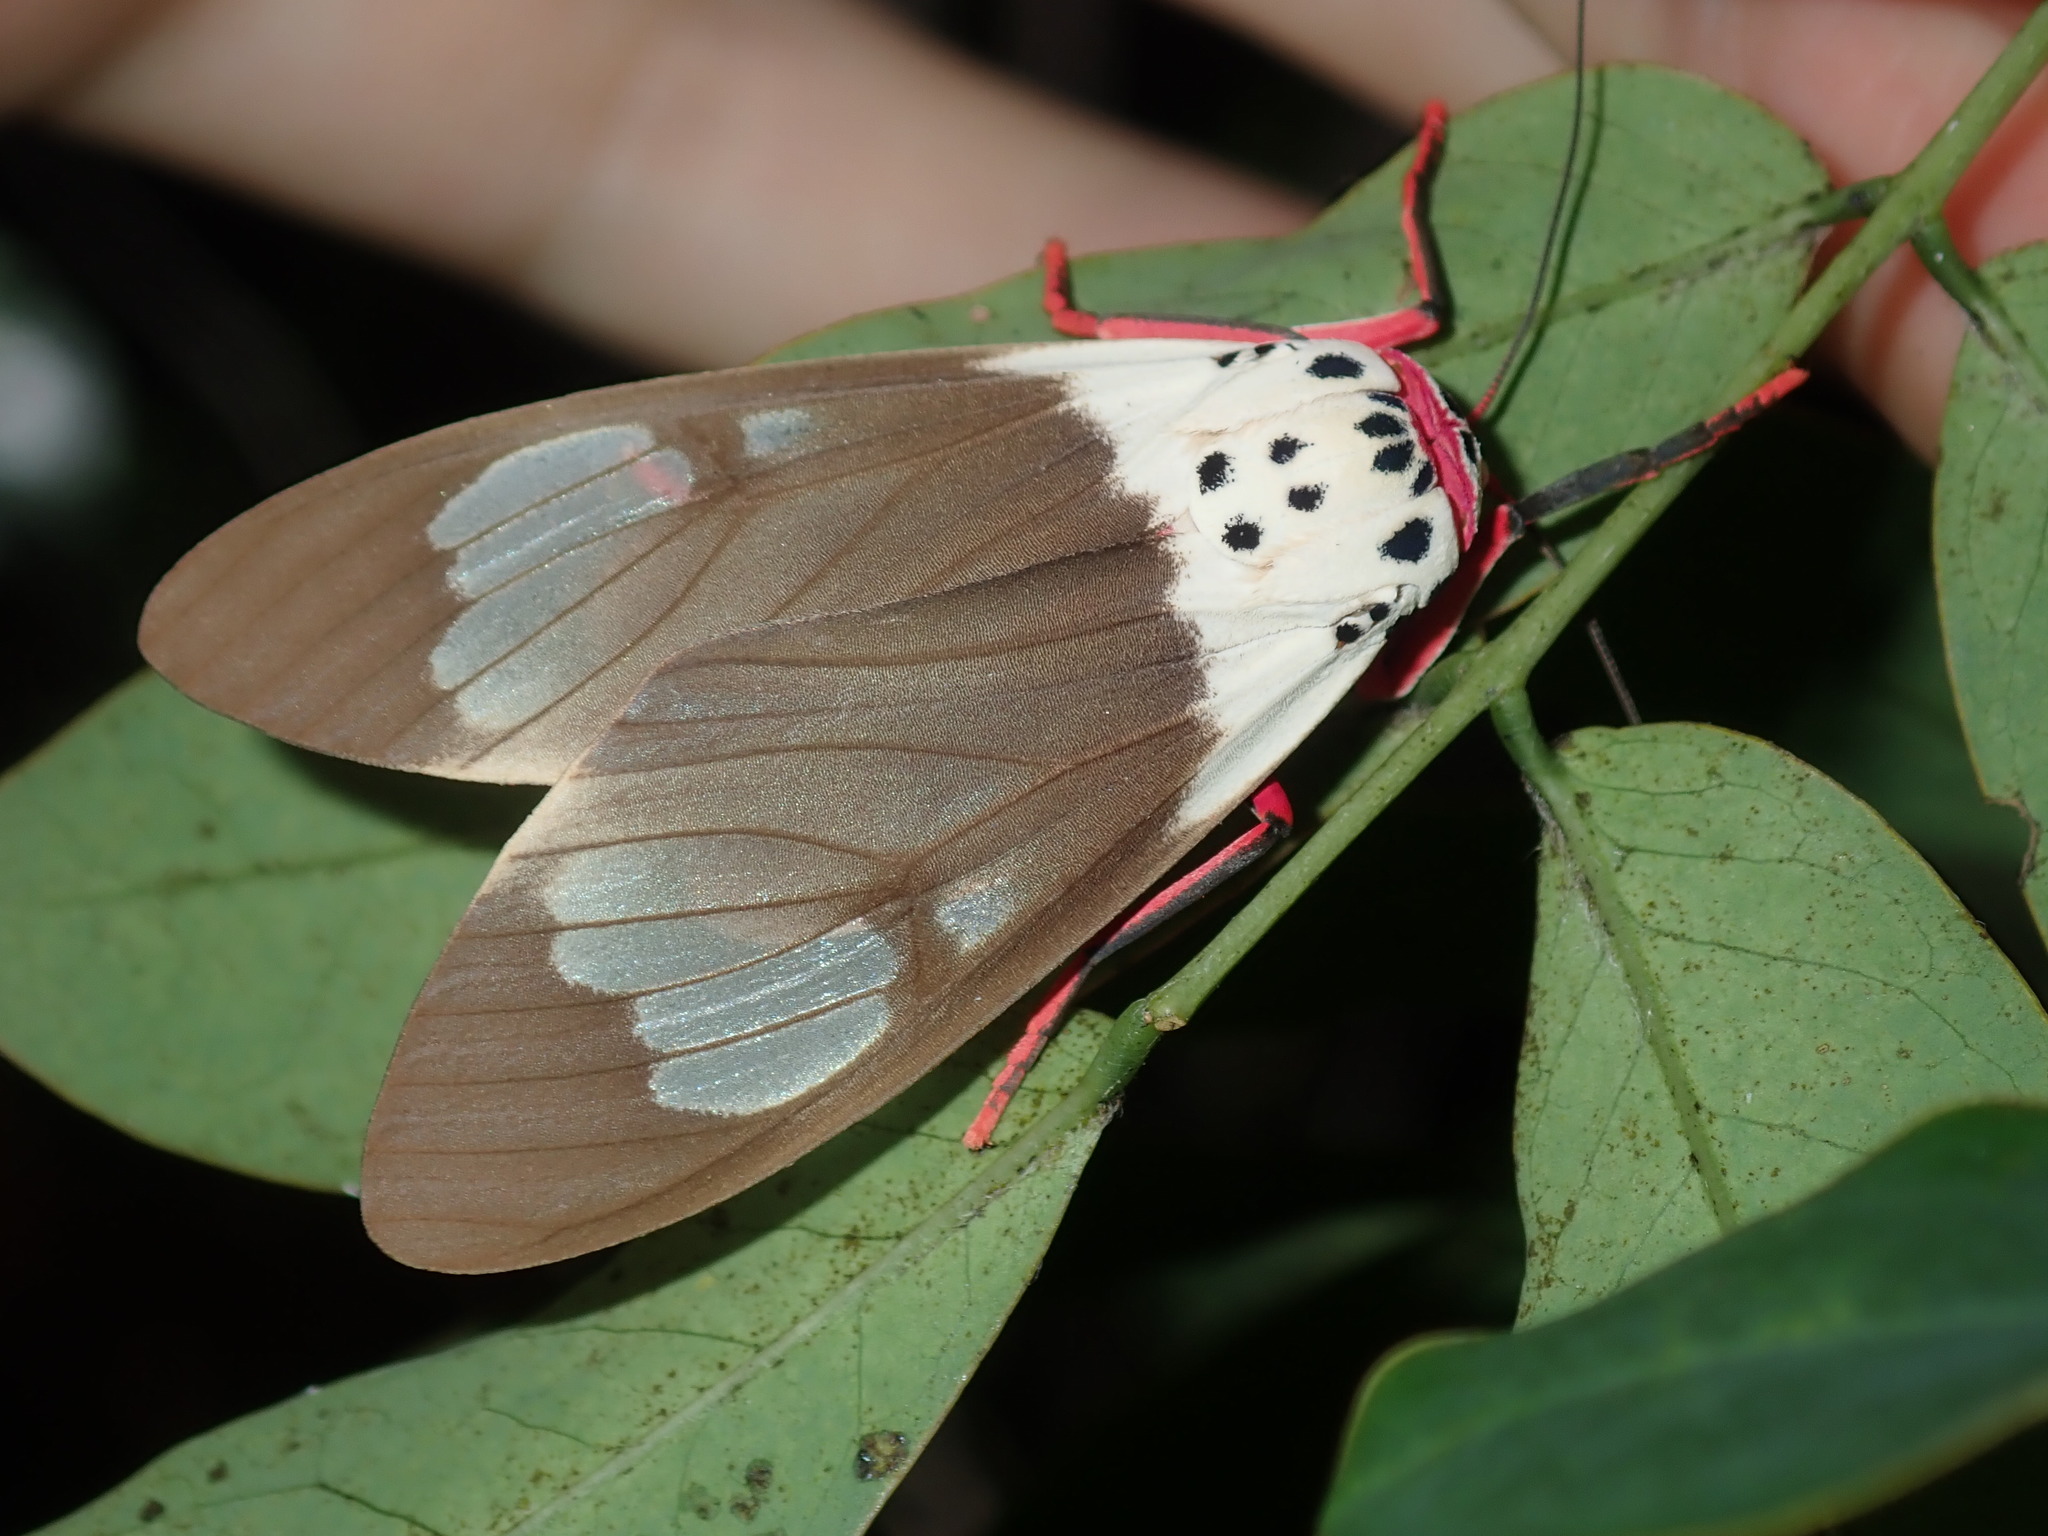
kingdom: Animalia
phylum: Arthropoda
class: Insecta
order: Lepidoptera
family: Erebidae
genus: Amerila
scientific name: Amerila crokeri
